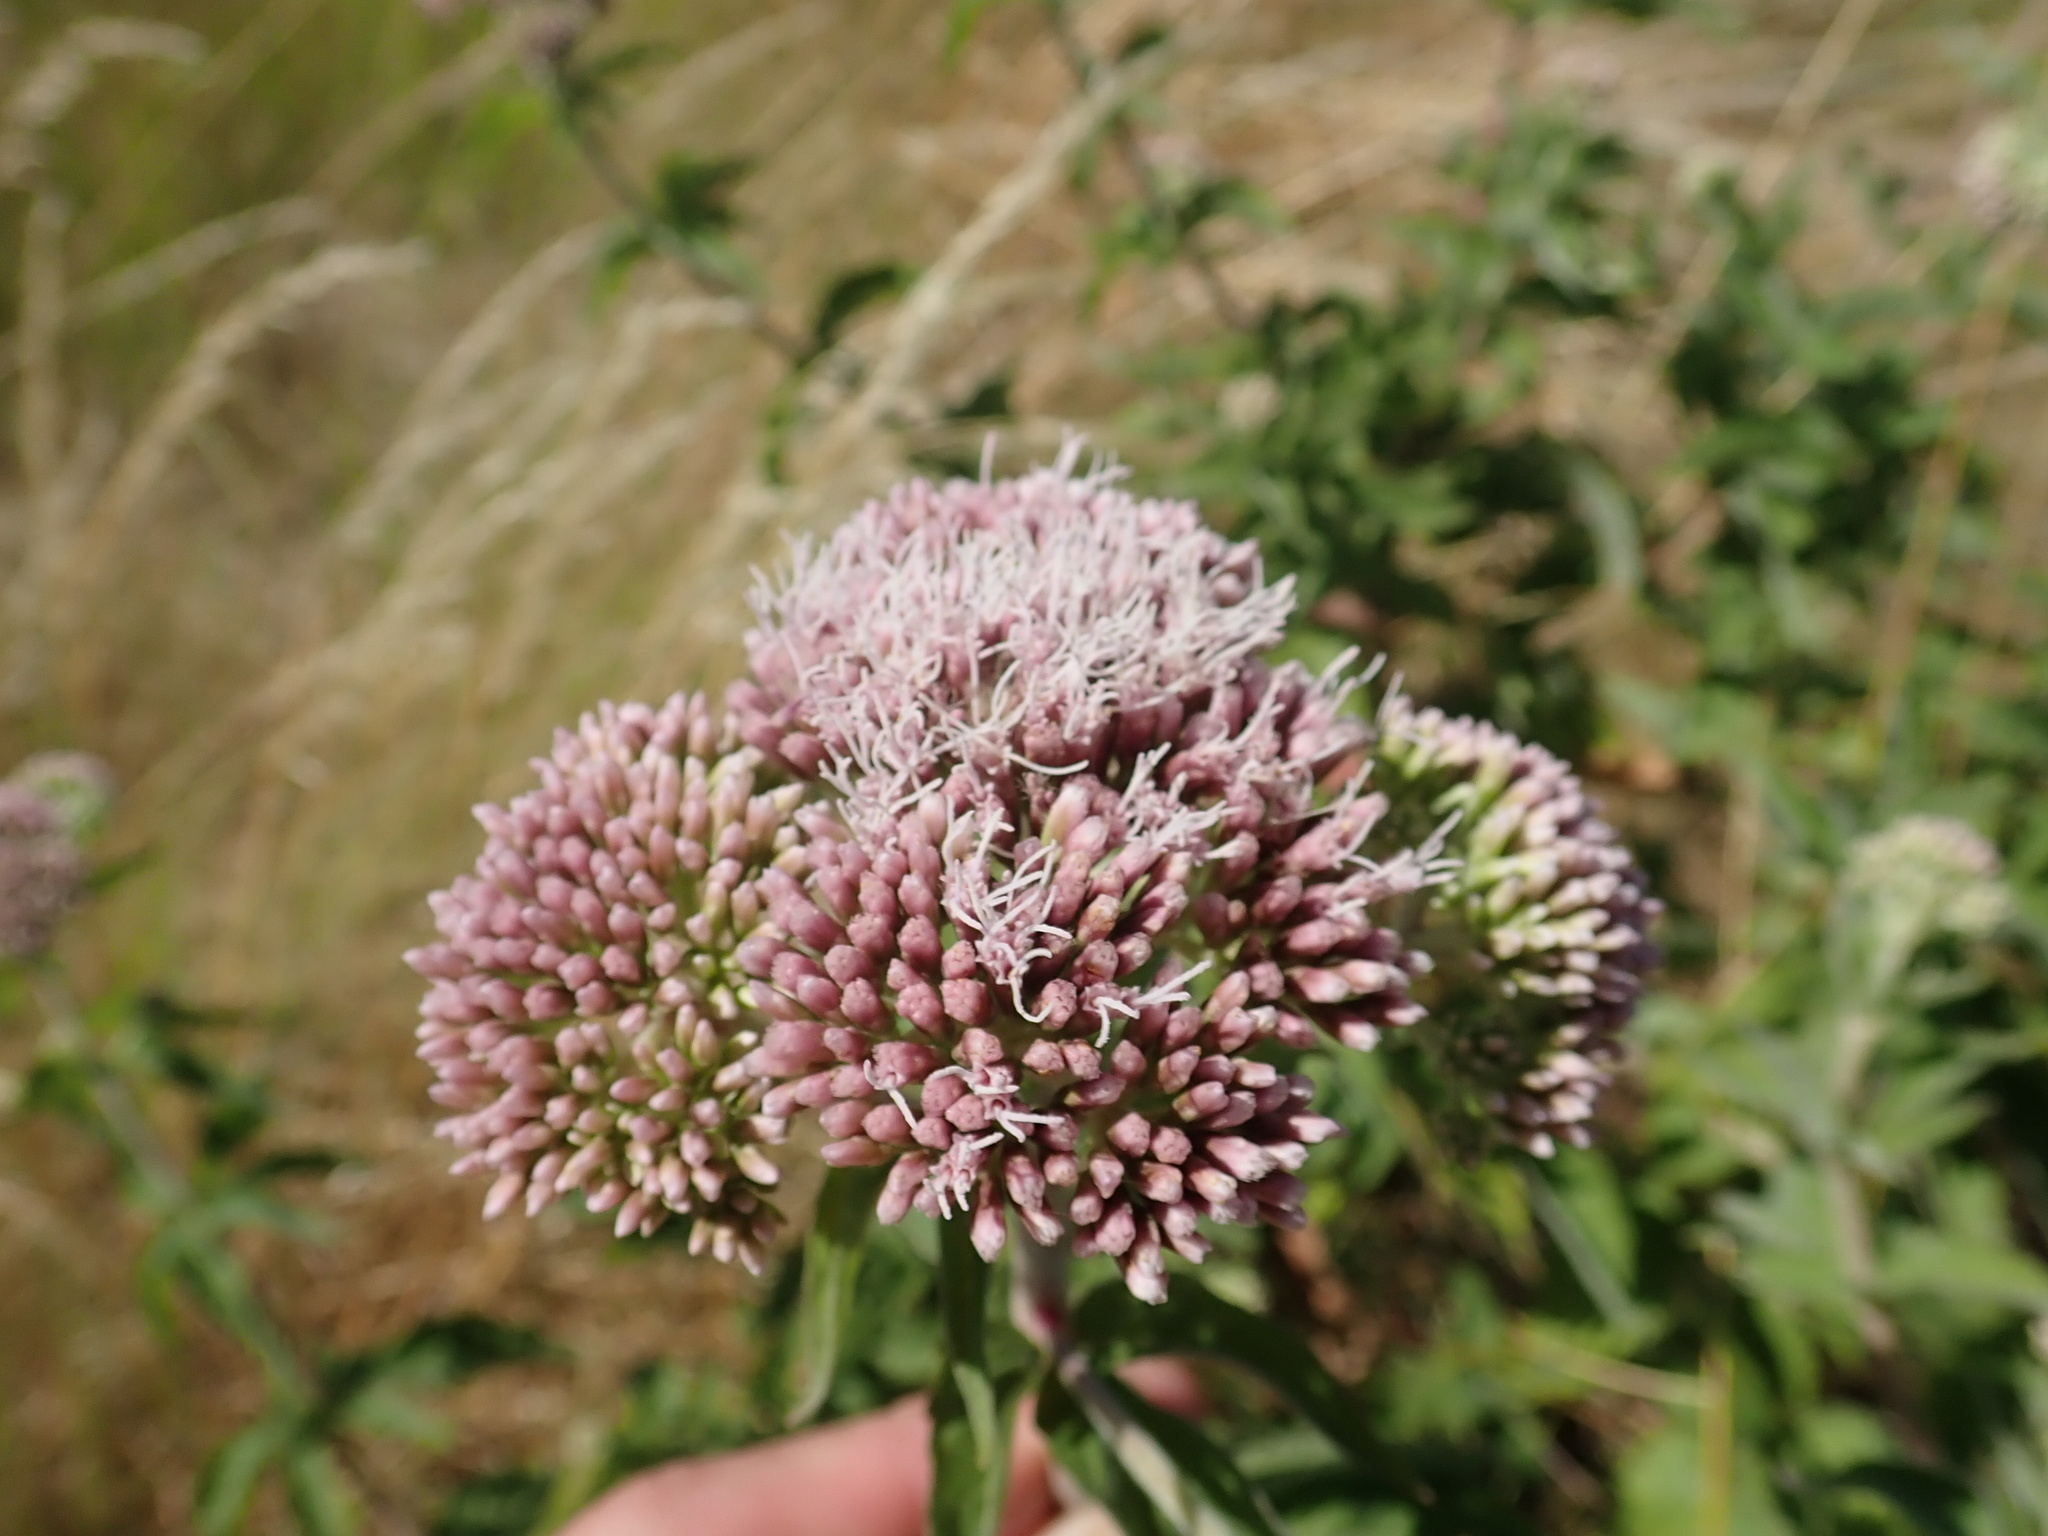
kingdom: Plantae
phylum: Tracheophyta
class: Magnoliopsida
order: Asterales
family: Asteraceae
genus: Eupatorium
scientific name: Eupatorium cannabinum
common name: Hemp-agrimony
